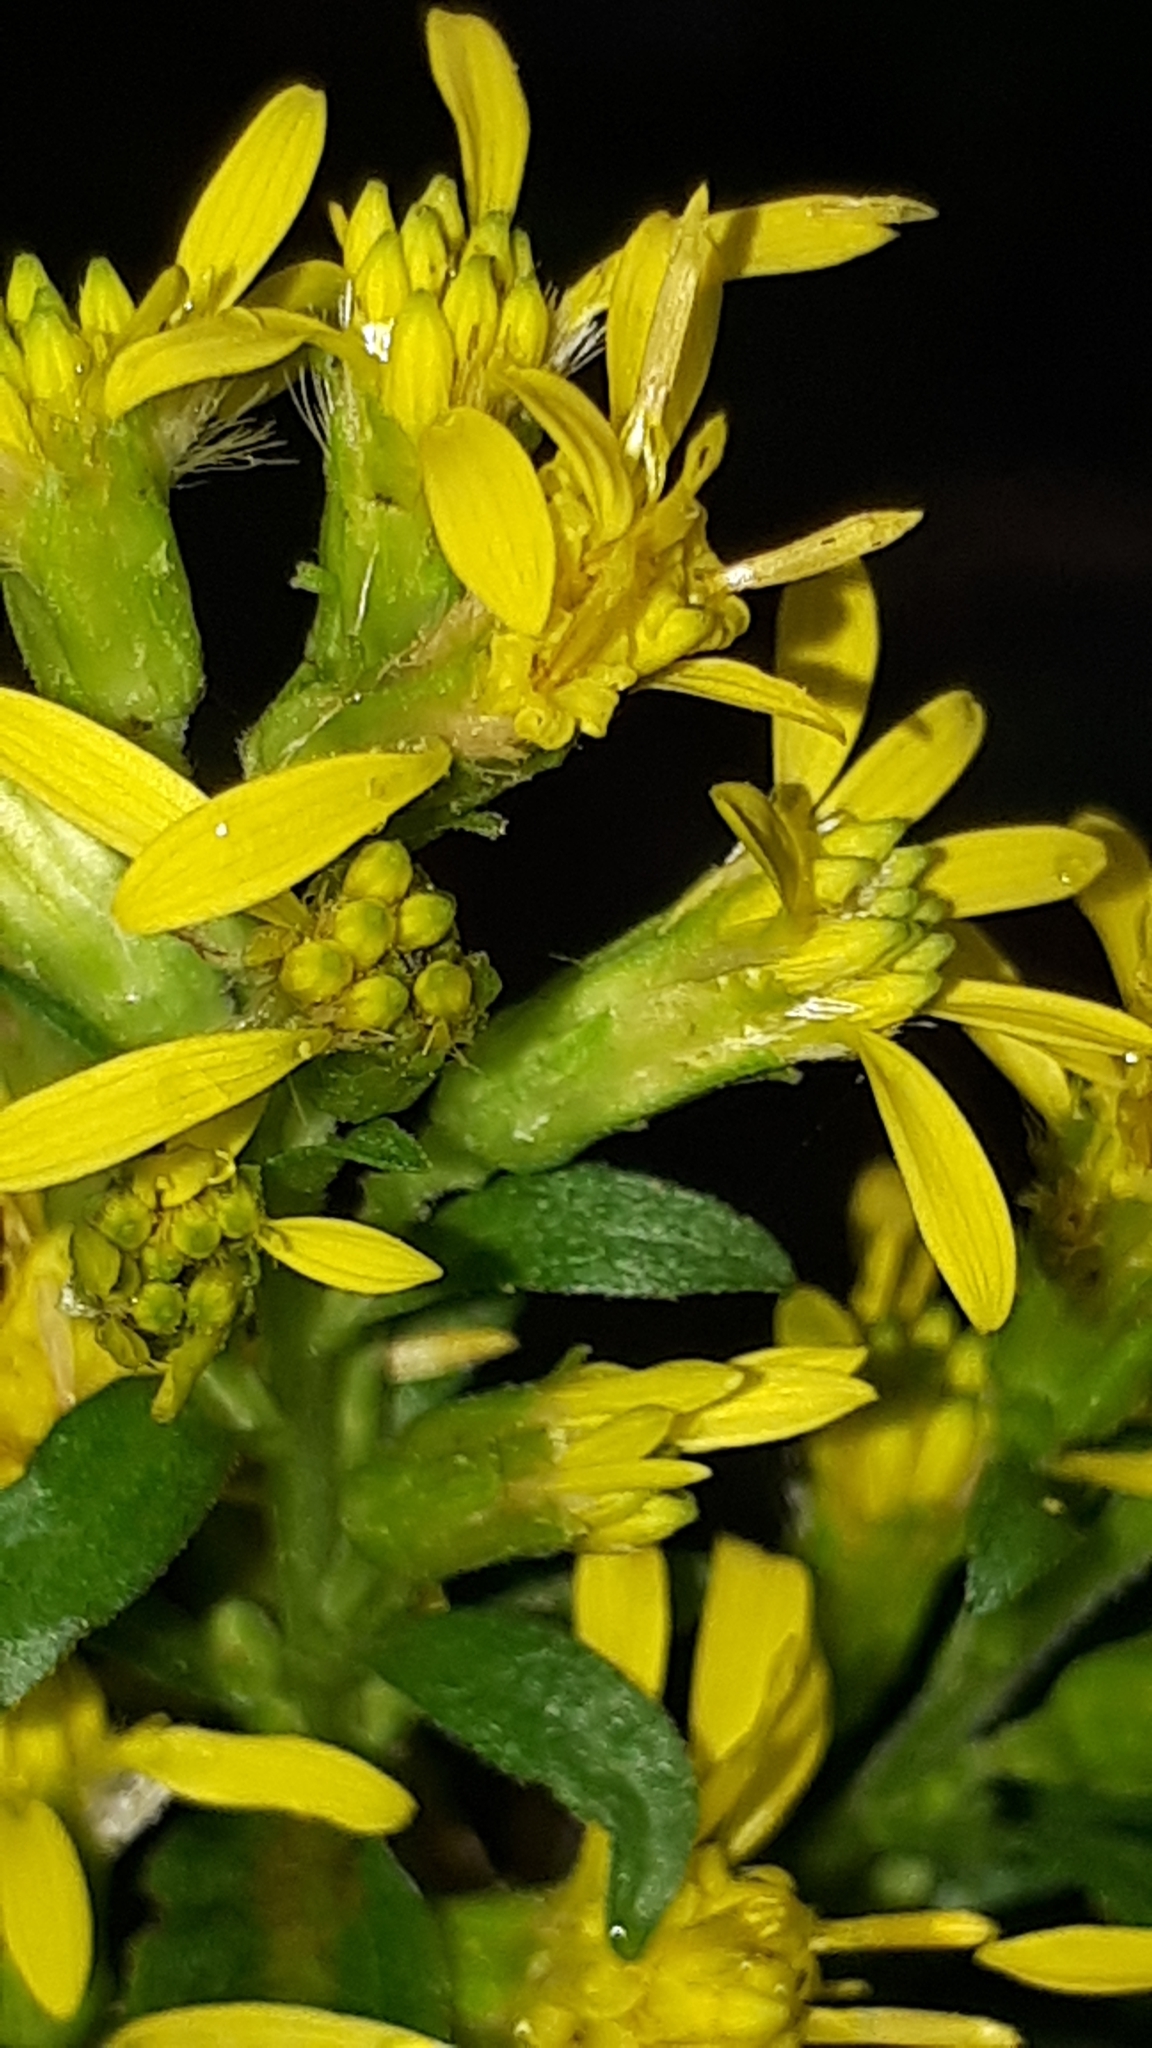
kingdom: Plantae
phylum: Tracheophyta
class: Magnoliopsida
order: Asterales
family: Asteraceae
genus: Solidago
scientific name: Solidago virgaurea
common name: Goldenrod
